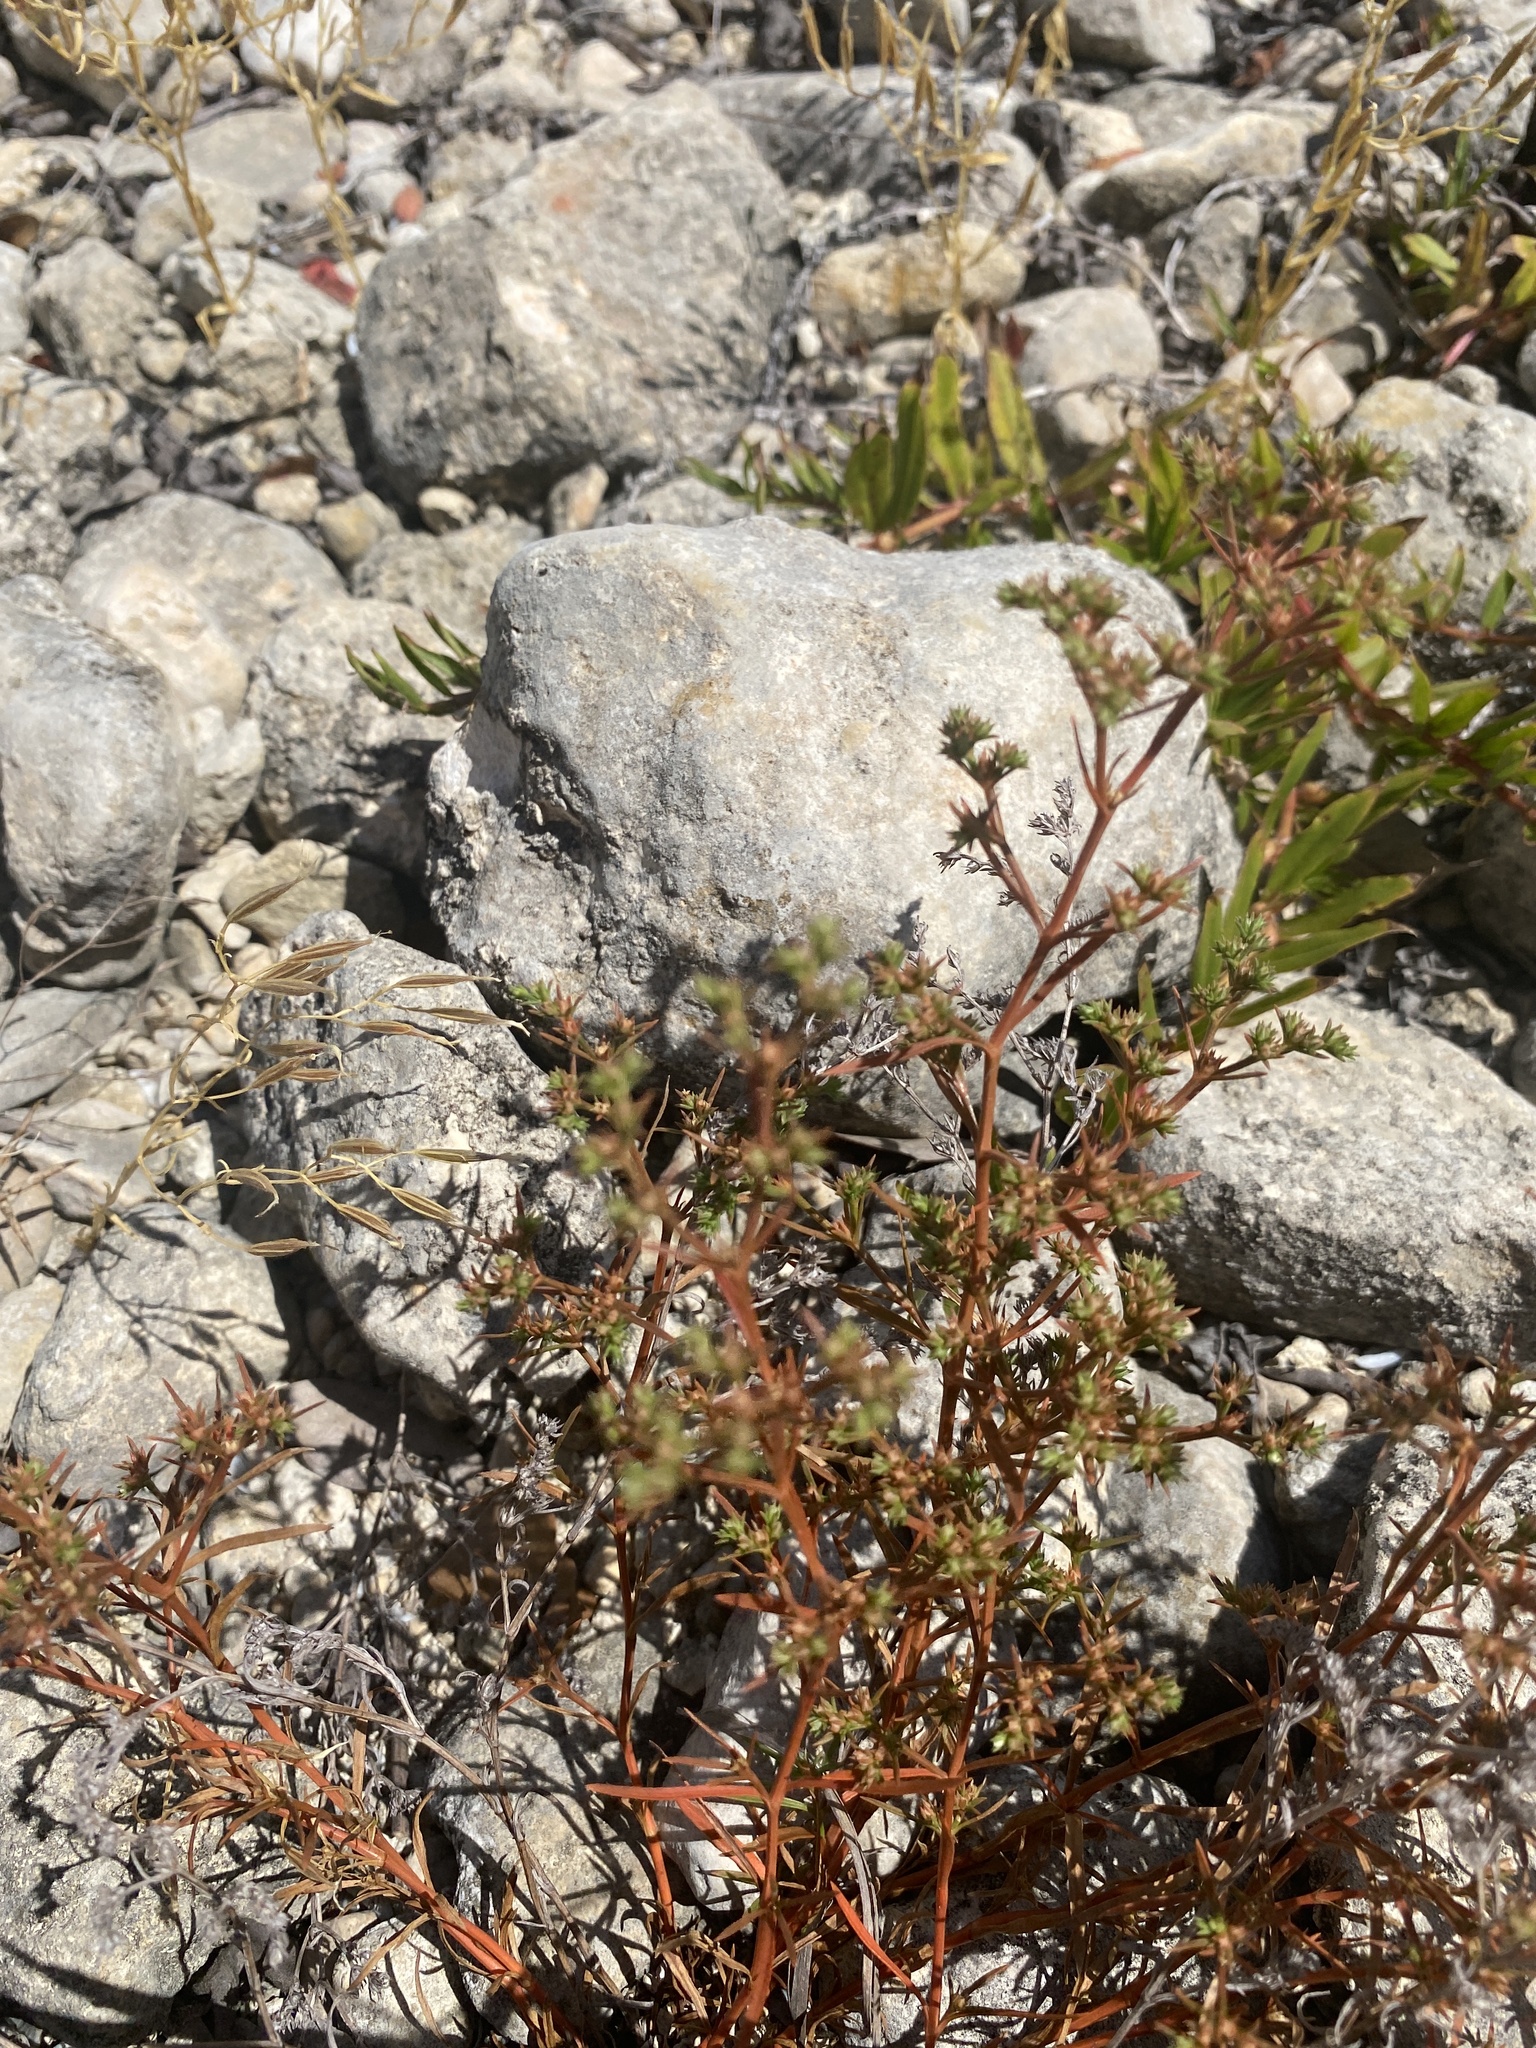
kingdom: Plantae
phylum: Tracheophyta
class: Magnoliopsida
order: Lamiales
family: Tetrachondraceae
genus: Polypremum
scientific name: Polypremum procumbens
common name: Juniper-leaf
